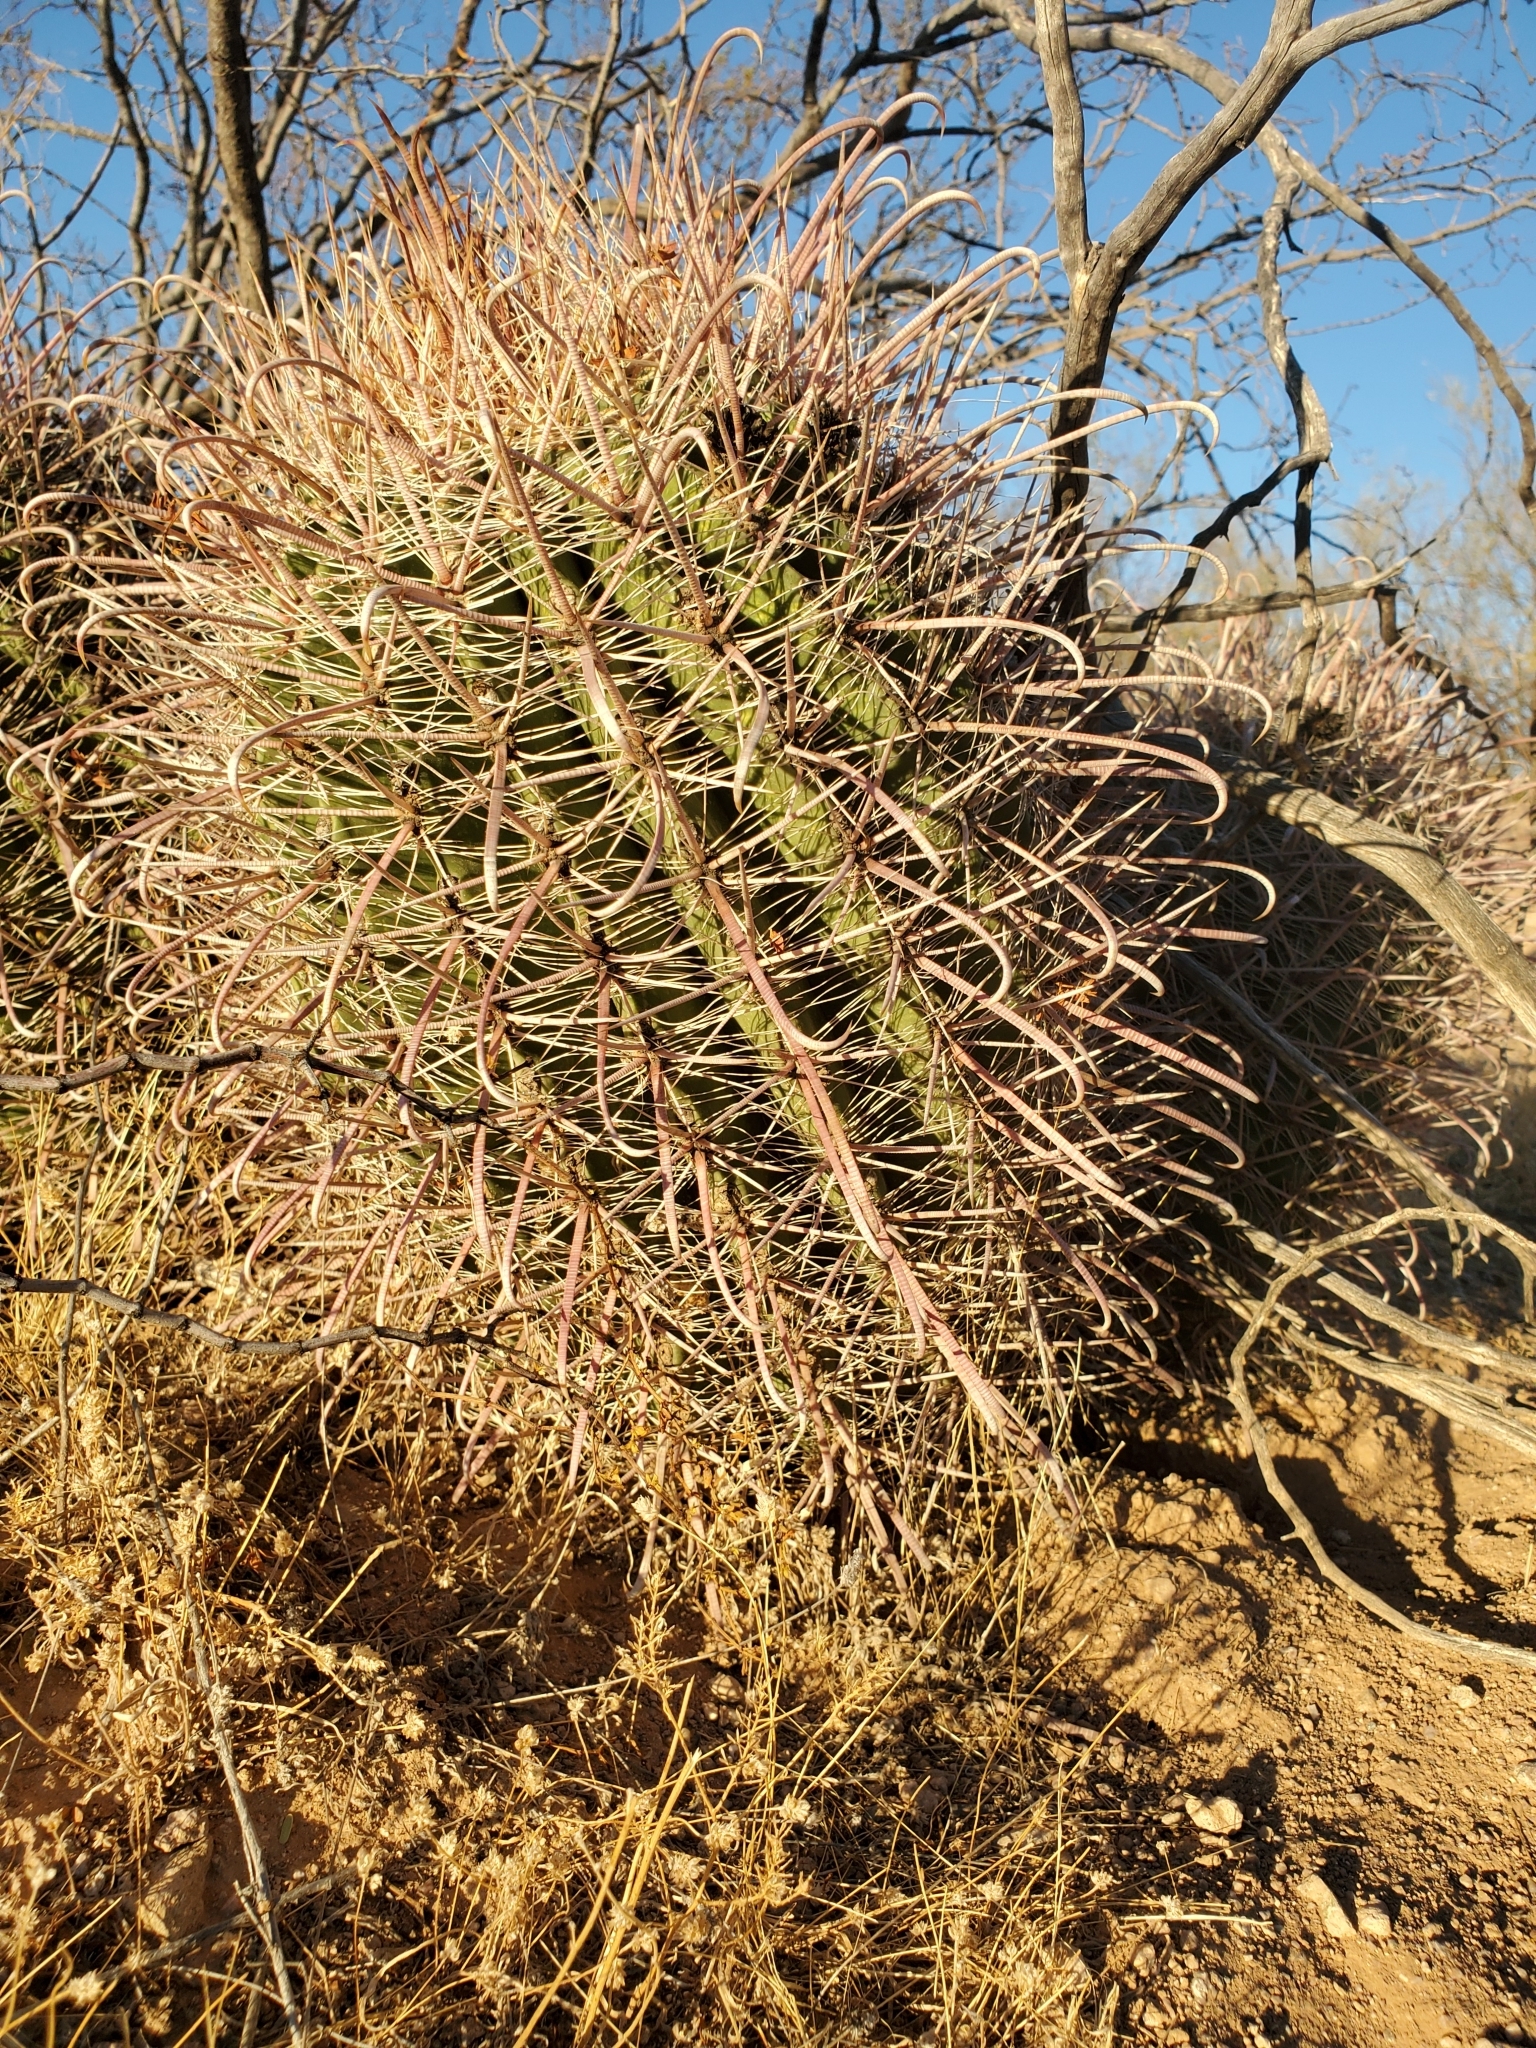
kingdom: Plantae
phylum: Tracheophyta
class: Magnoliopsida
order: Caryophyllales
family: Cactaceae
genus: Ferocactus
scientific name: Ferocactus cylindraceus
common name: California barrel cactus
